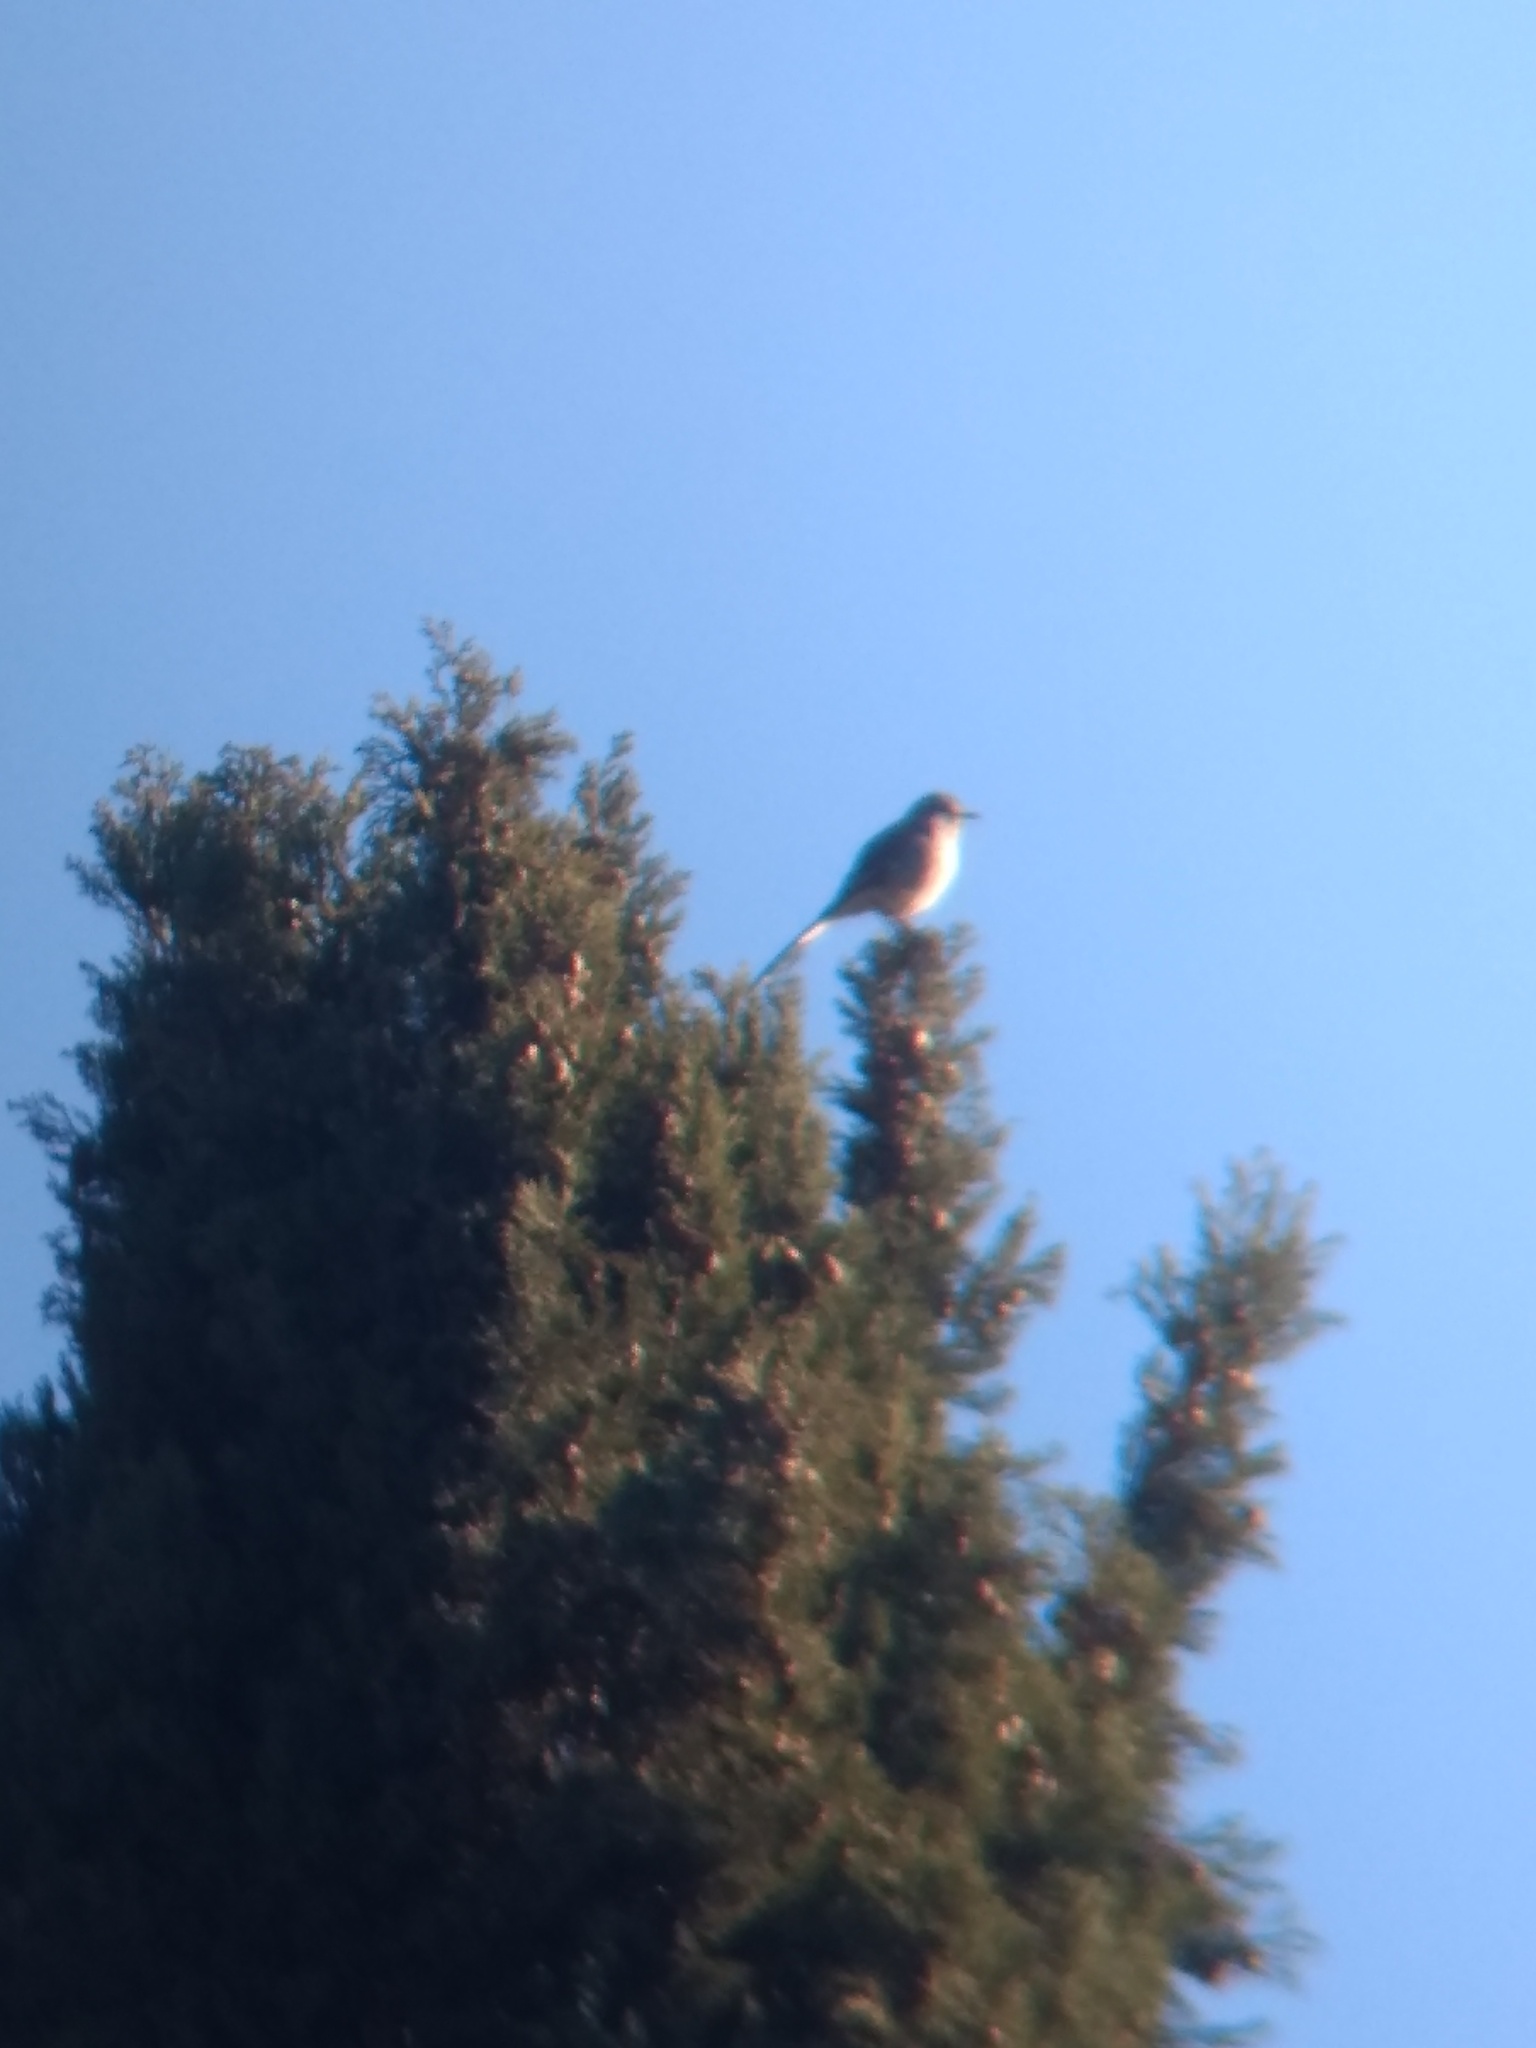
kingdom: Animalia
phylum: Chordata
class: Aves
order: Passeriformes
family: Mimidae
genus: Mimus
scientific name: Mimus polyglottos
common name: Northern mockingbird
